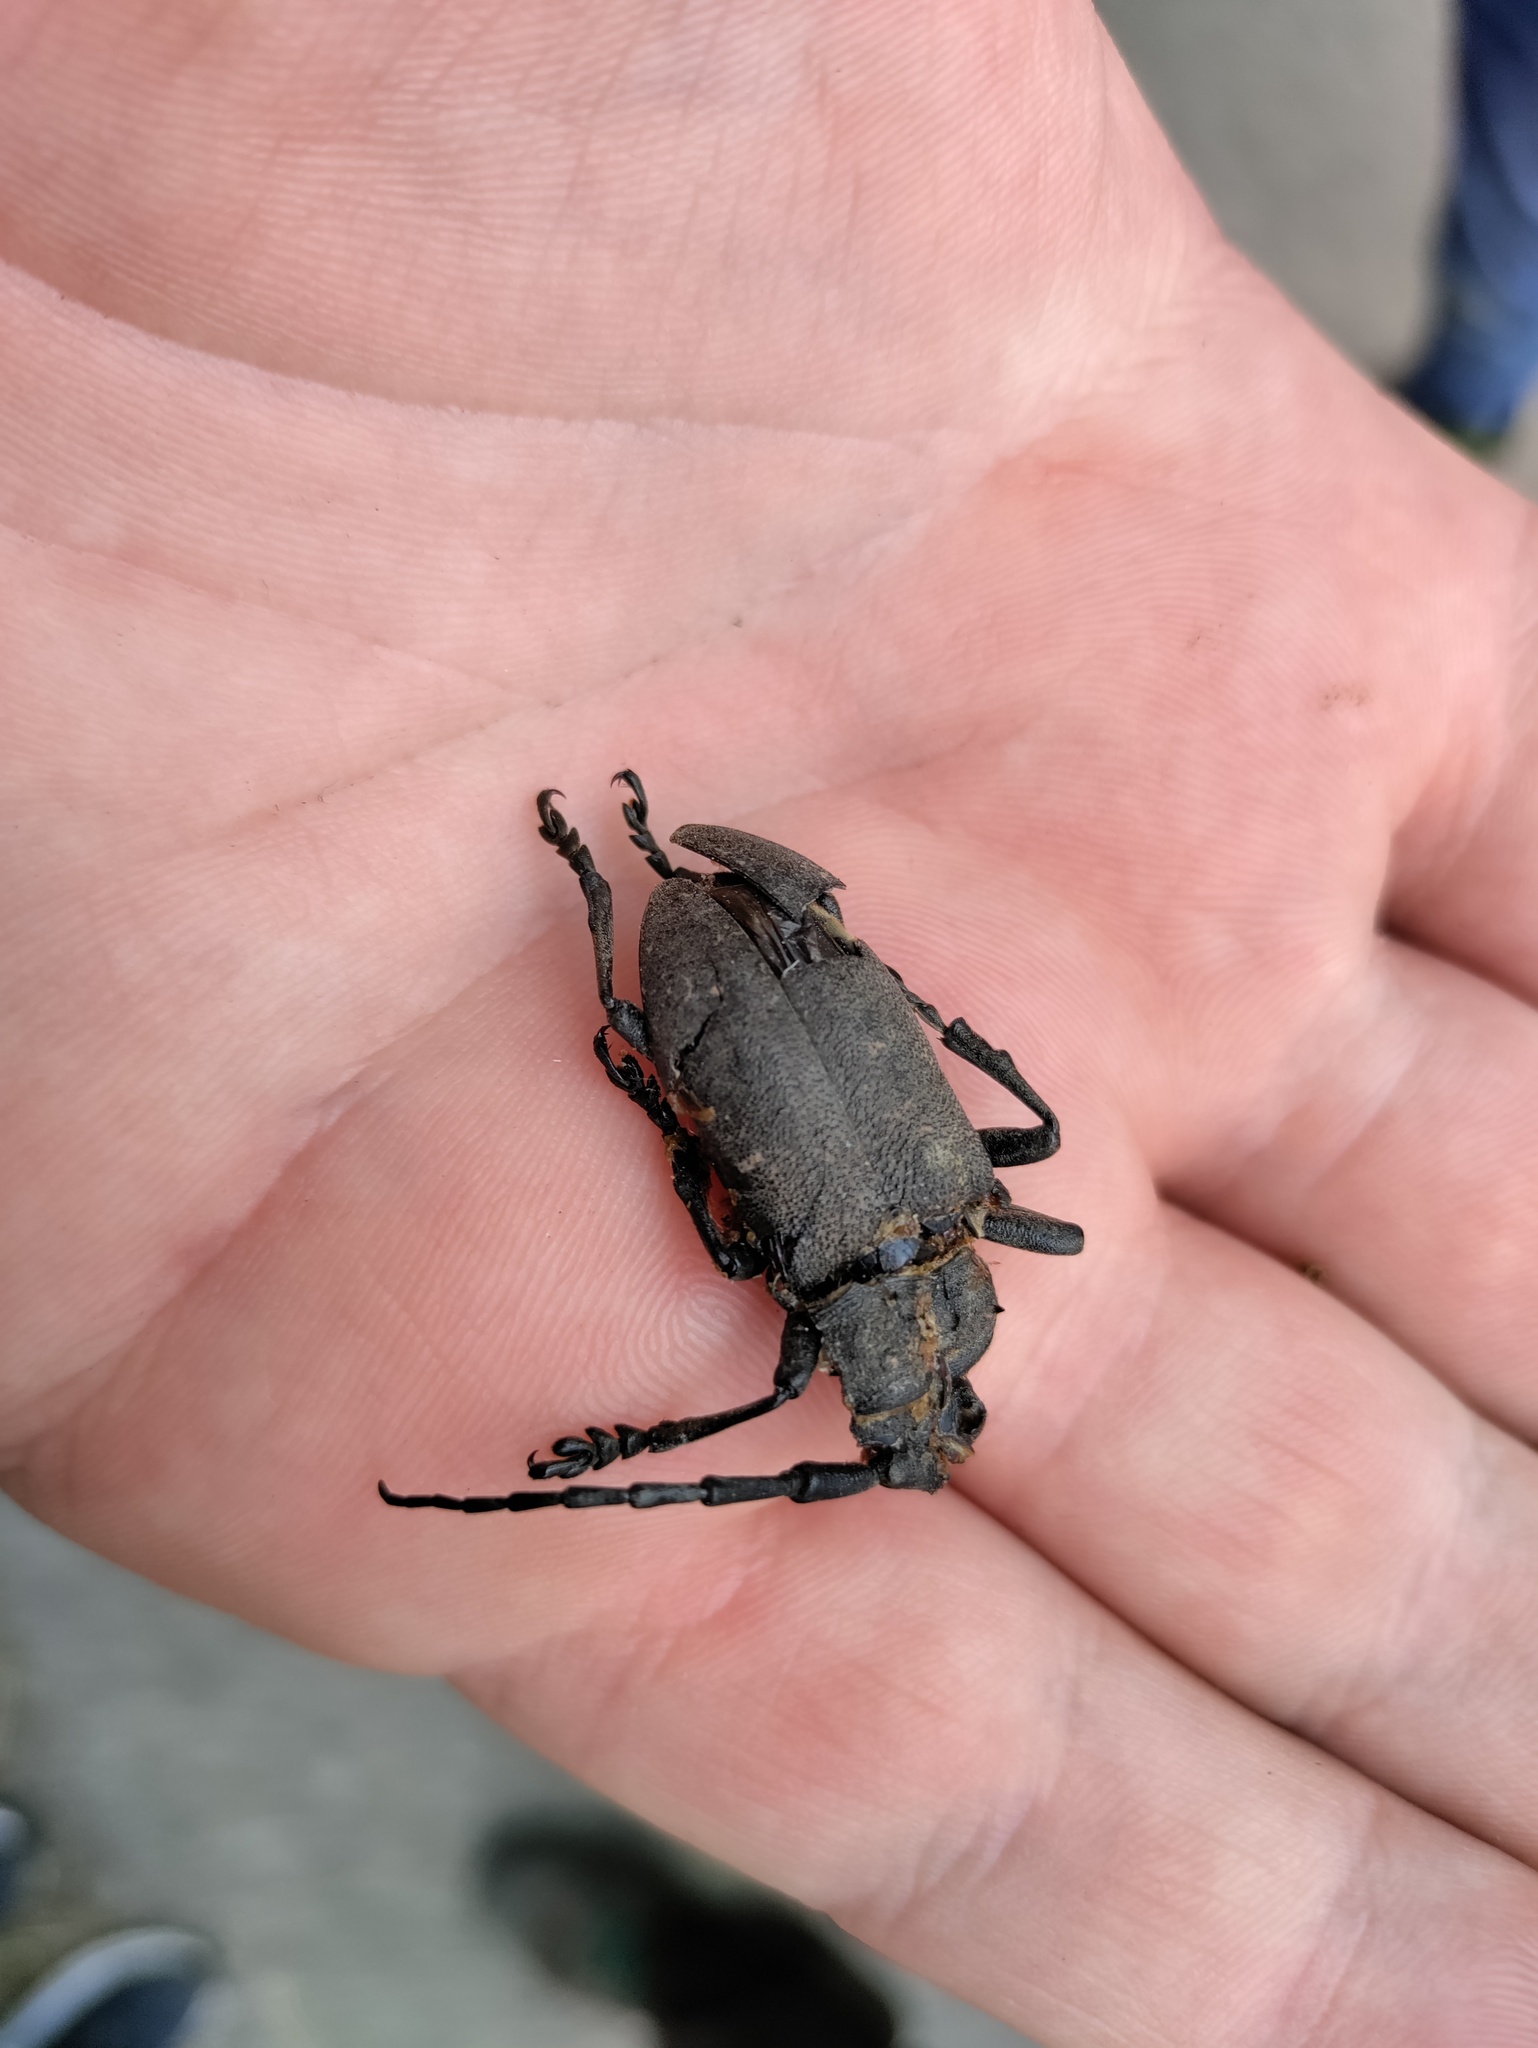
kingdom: Animalia
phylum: Arthropoda
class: Insecta
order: Coleoptera
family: Cerambycidae
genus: Lamia
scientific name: Lamia textor
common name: Weaver beetle
